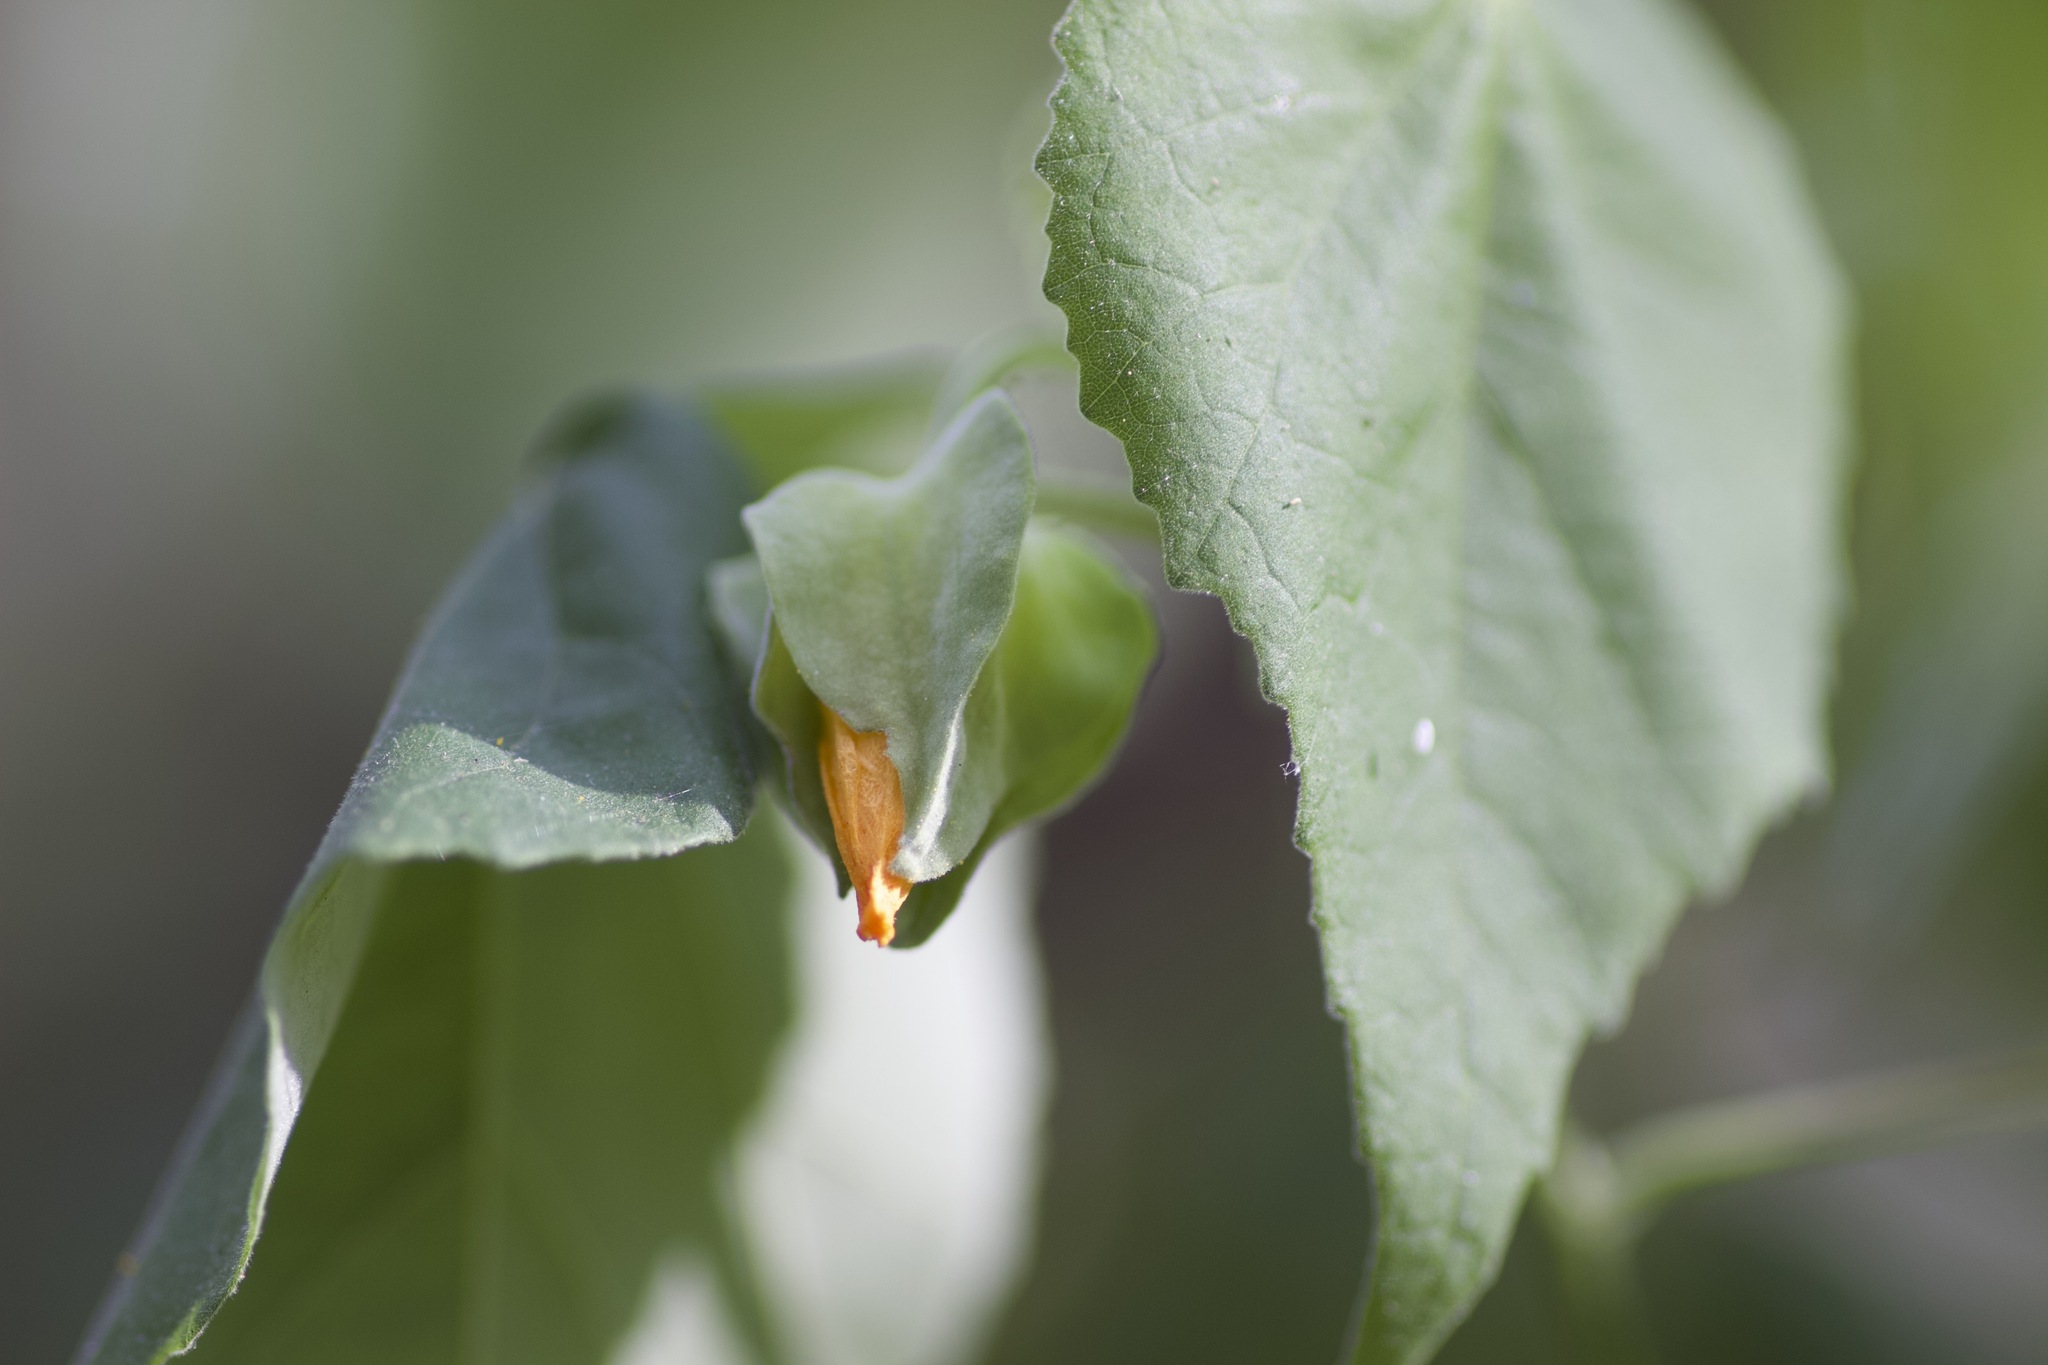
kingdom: Plantae
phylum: Tracheophyta
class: Magnoliopsida
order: Malvales
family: Malvaceae
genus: Abutilon
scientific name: Abutilon hypoleucum
